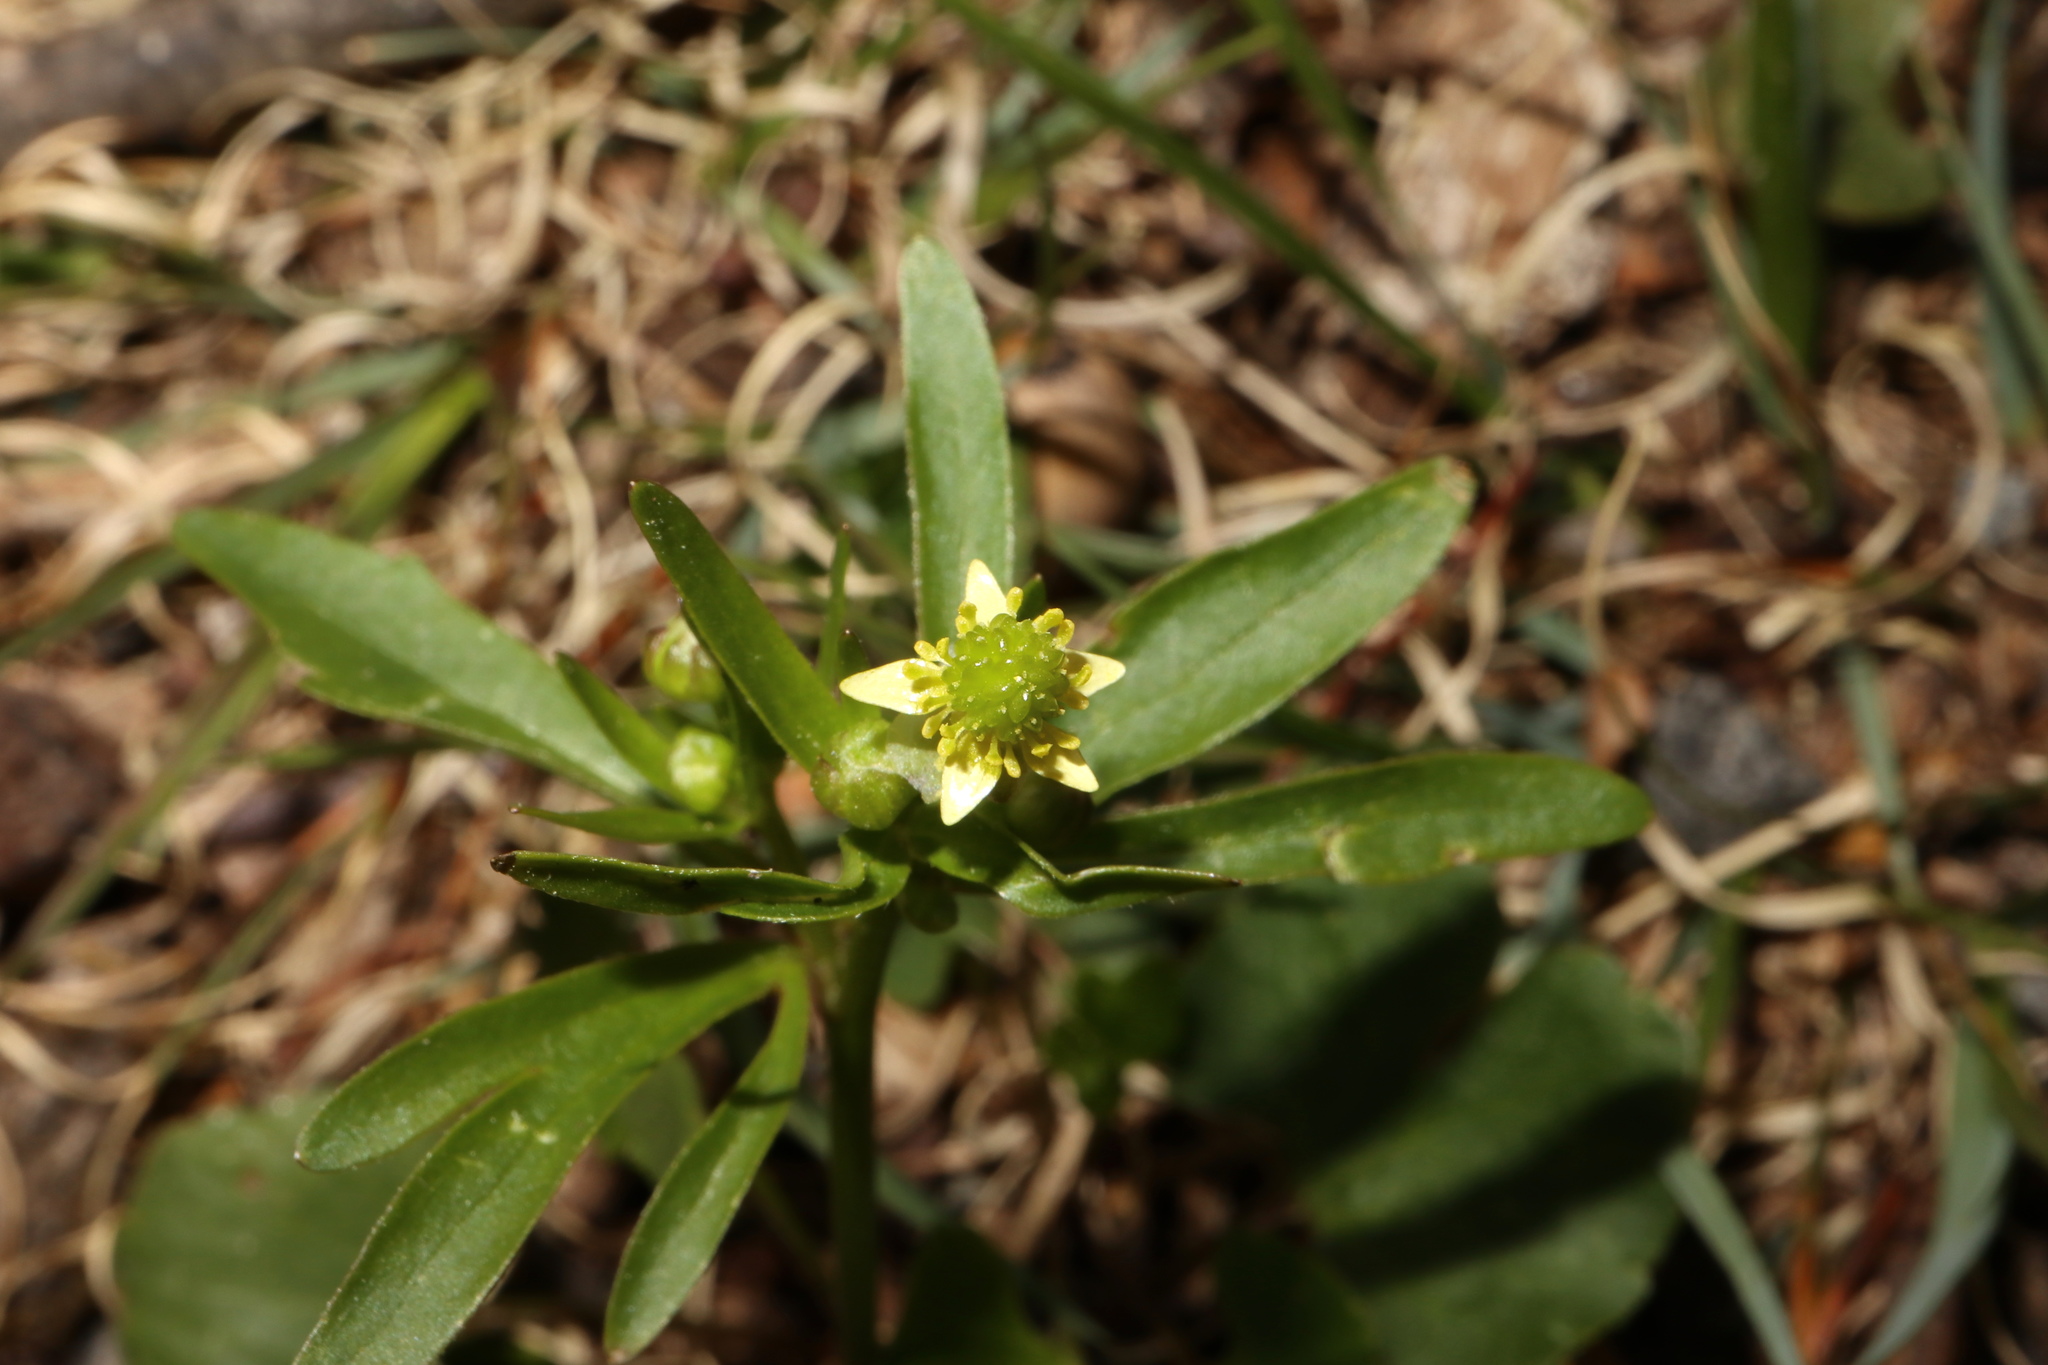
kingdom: Plantae
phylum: Tracheophyta
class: Magnoliopsida
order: Ranunculales
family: Ranunculaceae
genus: Ranunculus
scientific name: Ranunculus abortivus
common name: Early wood buttercup
